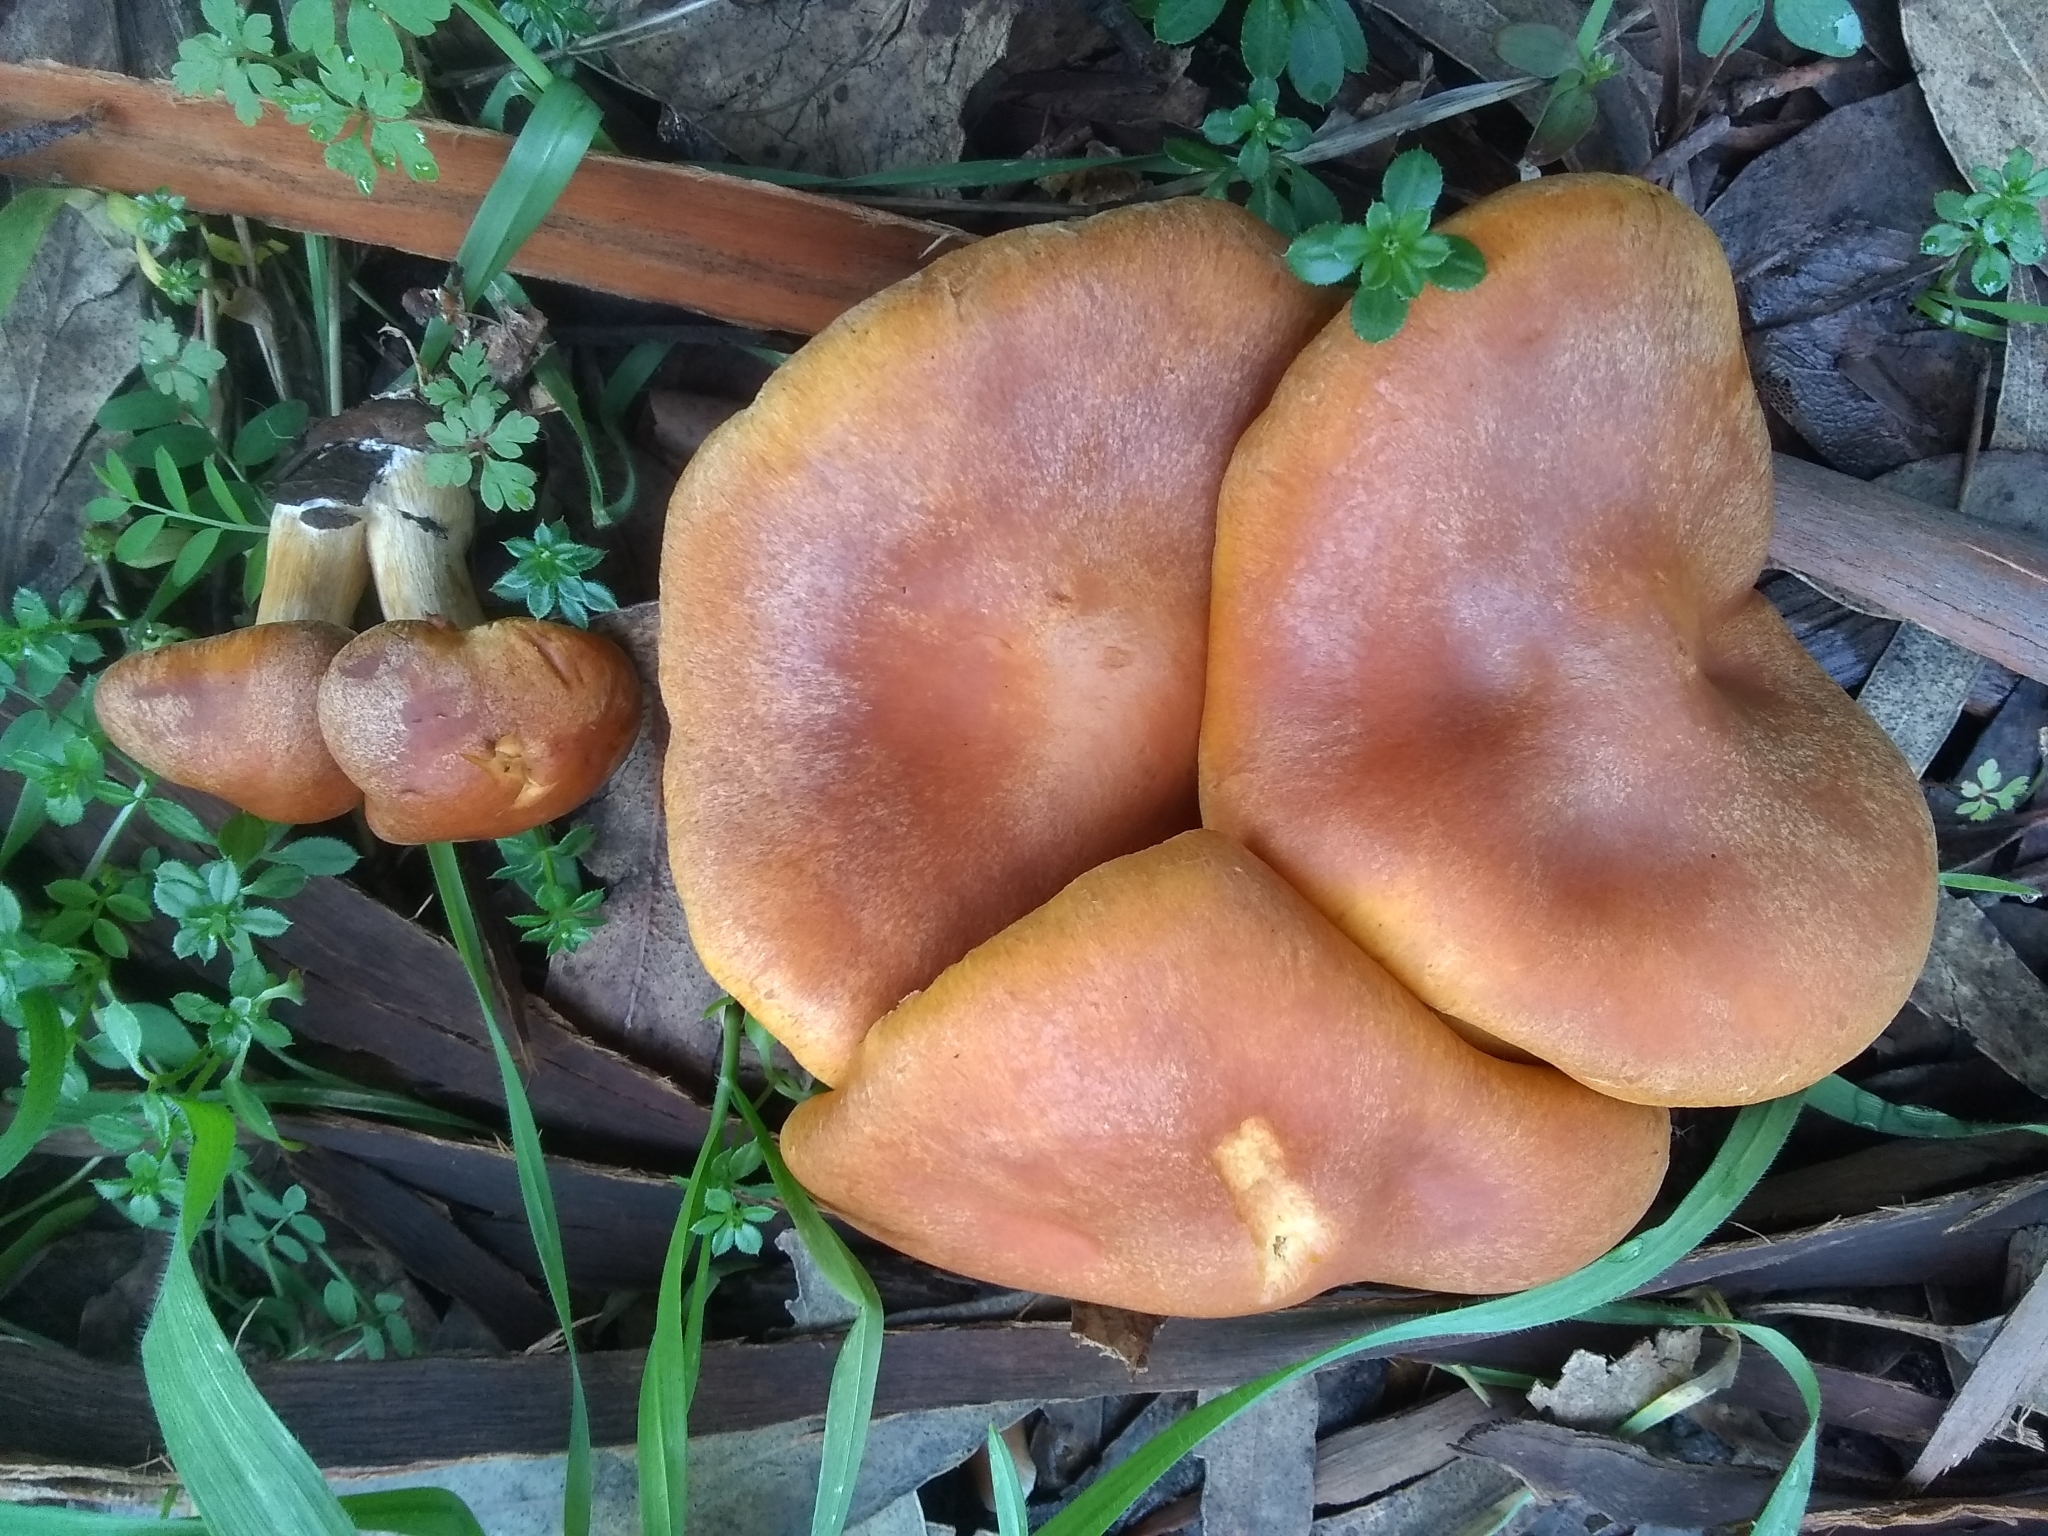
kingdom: Fungi
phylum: Basidiomycota
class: Agaricomycetes
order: Agaricales
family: Hymenogastraceae
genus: Gymnopilus
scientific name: Gymnopilus aurantiophyllus
